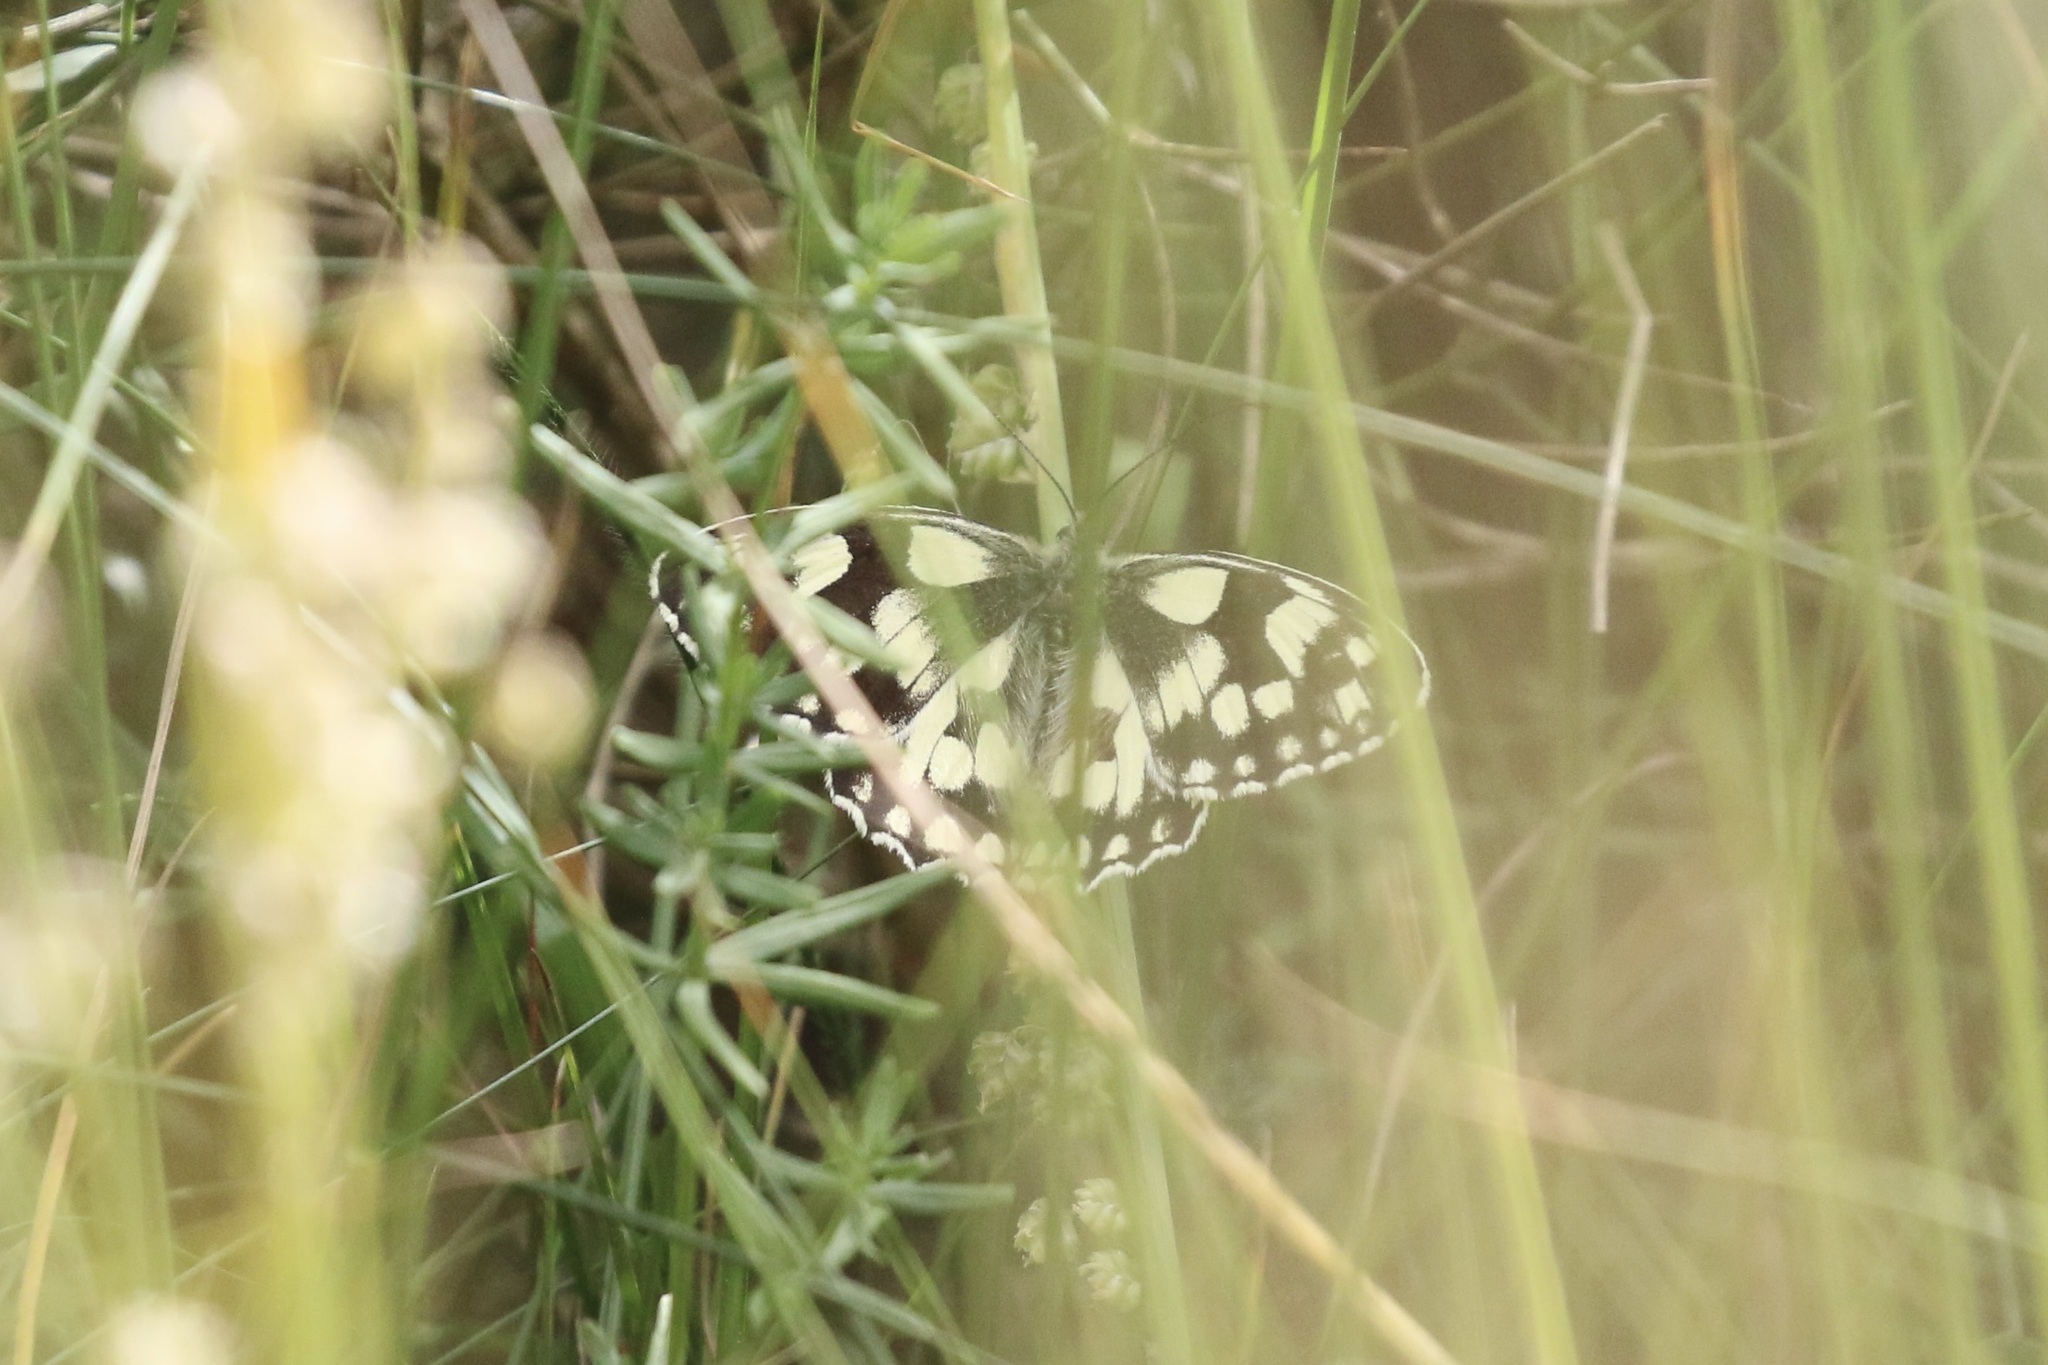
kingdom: Animalia
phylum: Arthropoda
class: Insecta
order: Lepidoptera
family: Nymphalidae
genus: Melanargia
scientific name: Melanargia galathea
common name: Marbled white
